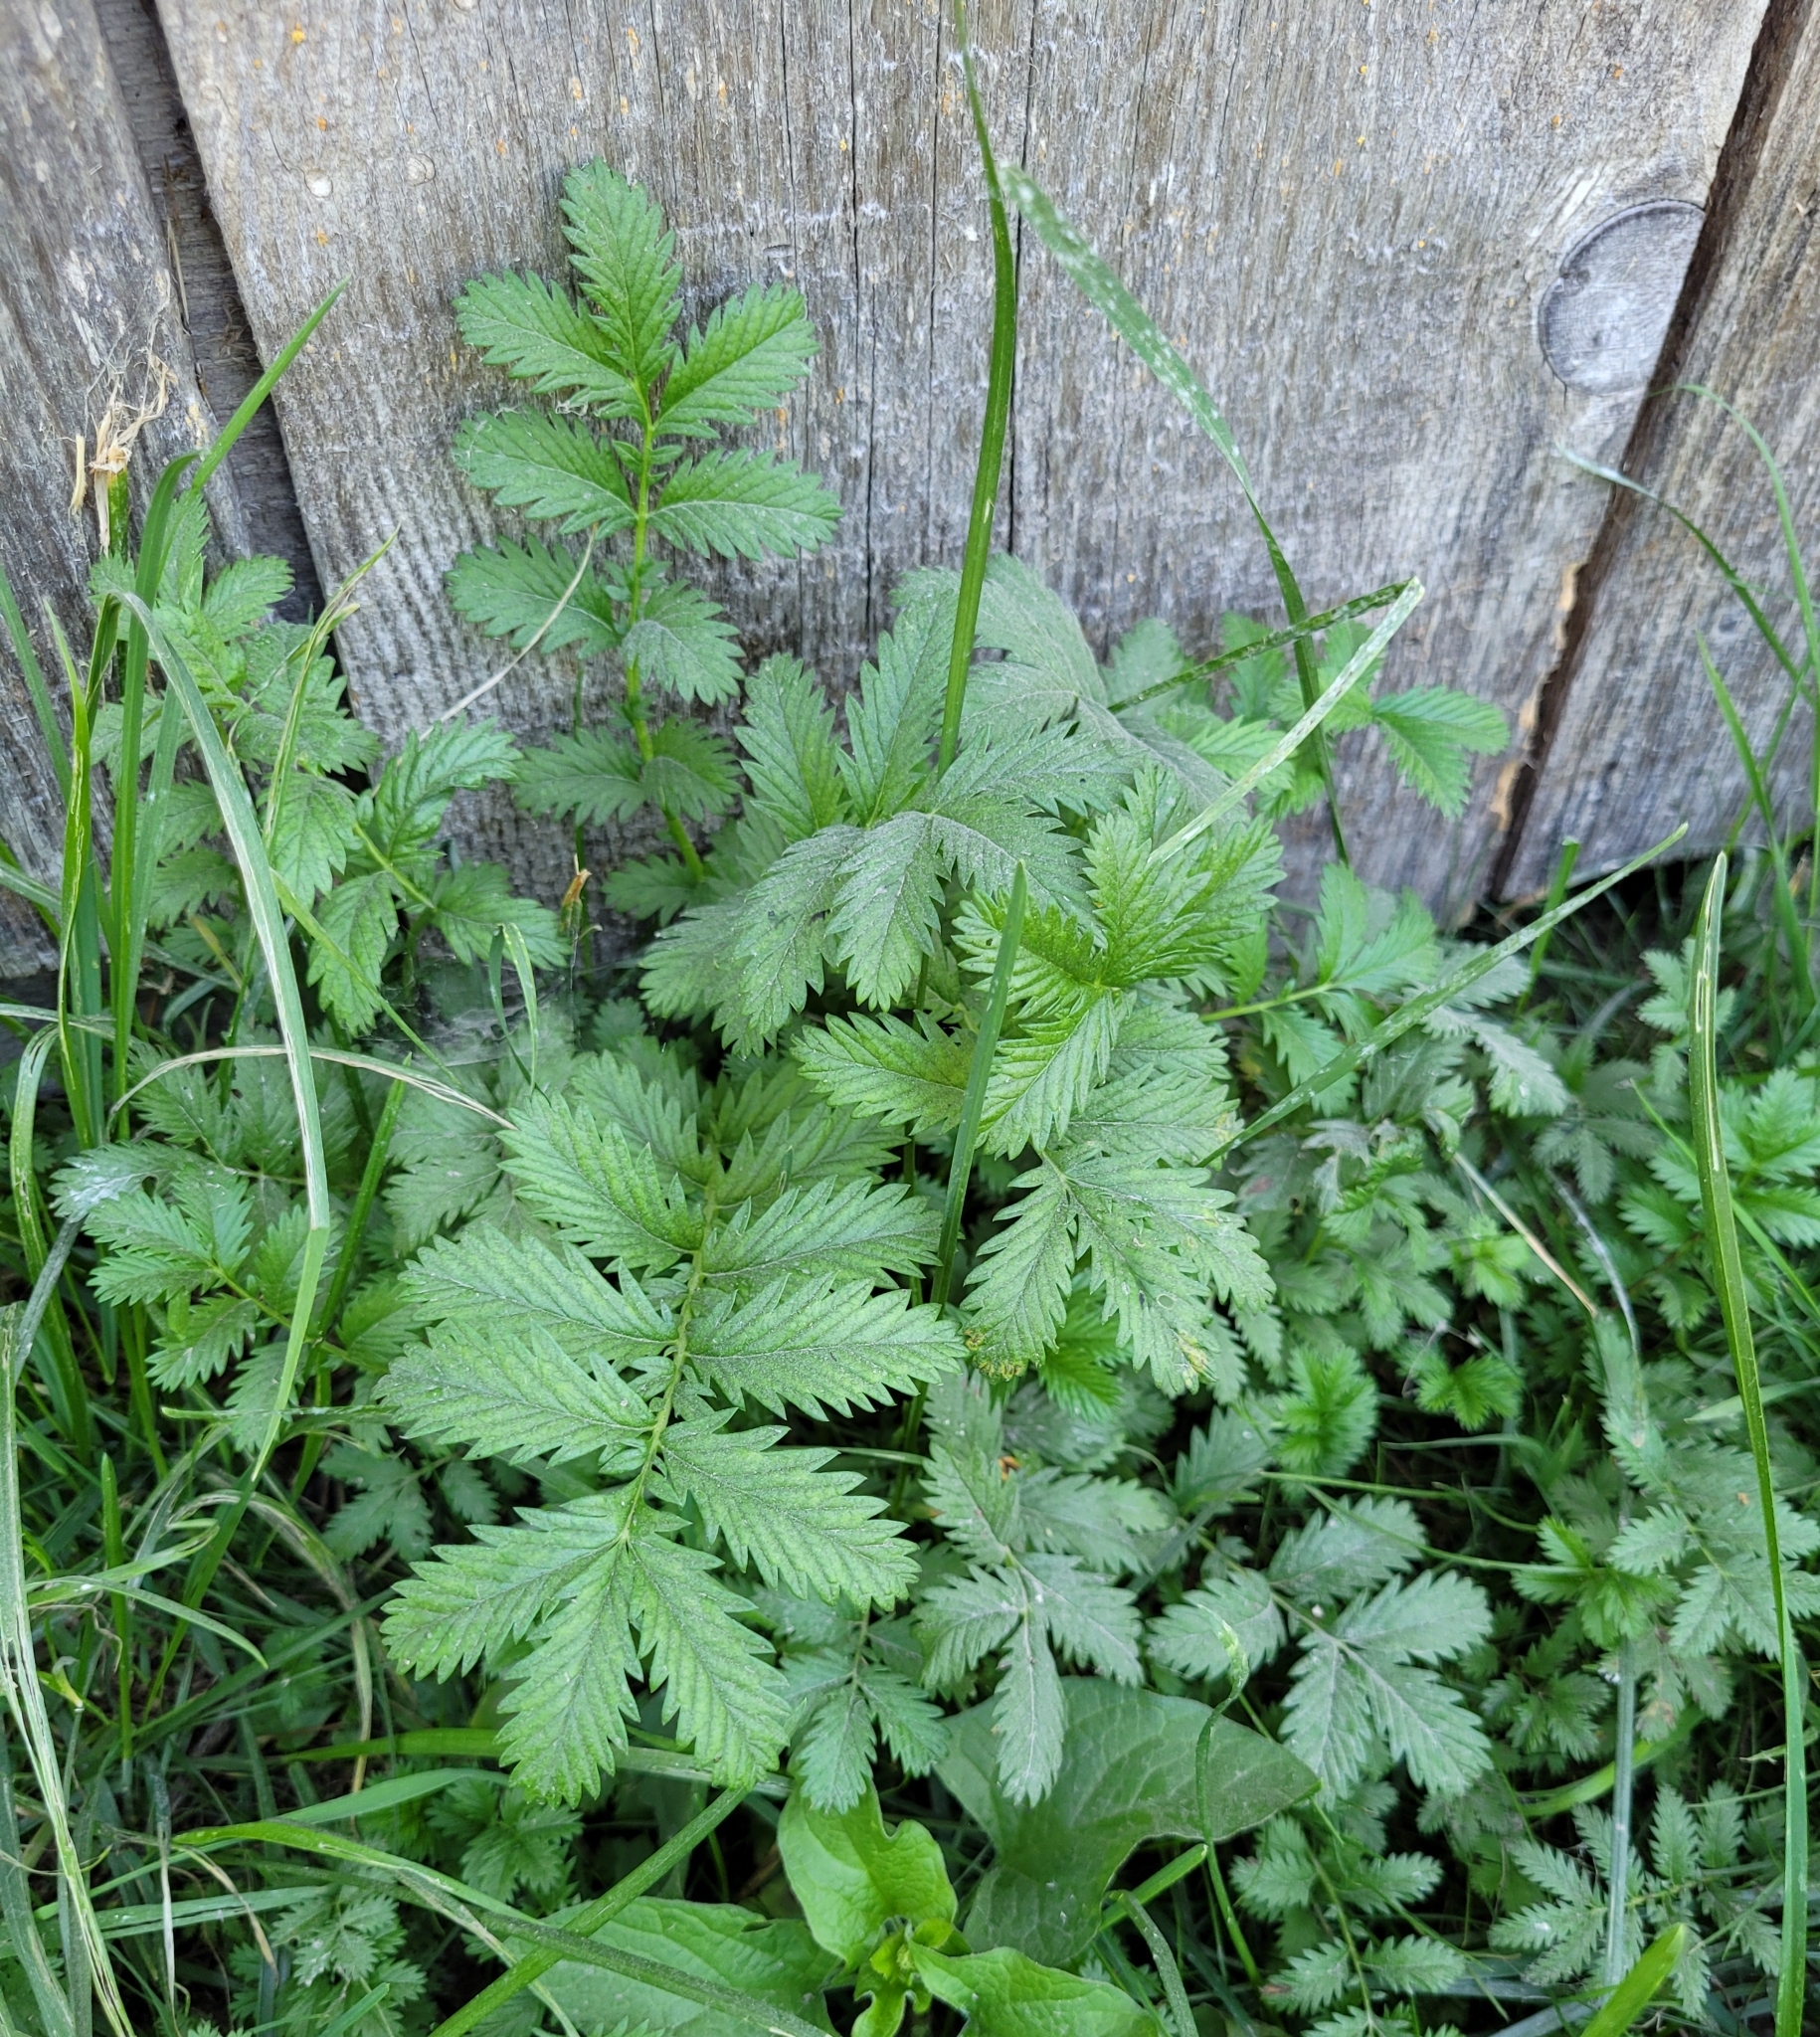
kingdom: Plantae
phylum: Tracheophyta
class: Magnoliopsida
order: Rosales
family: Rosaceae
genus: Argentina
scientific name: Argentina anserina
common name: Common silverweed
